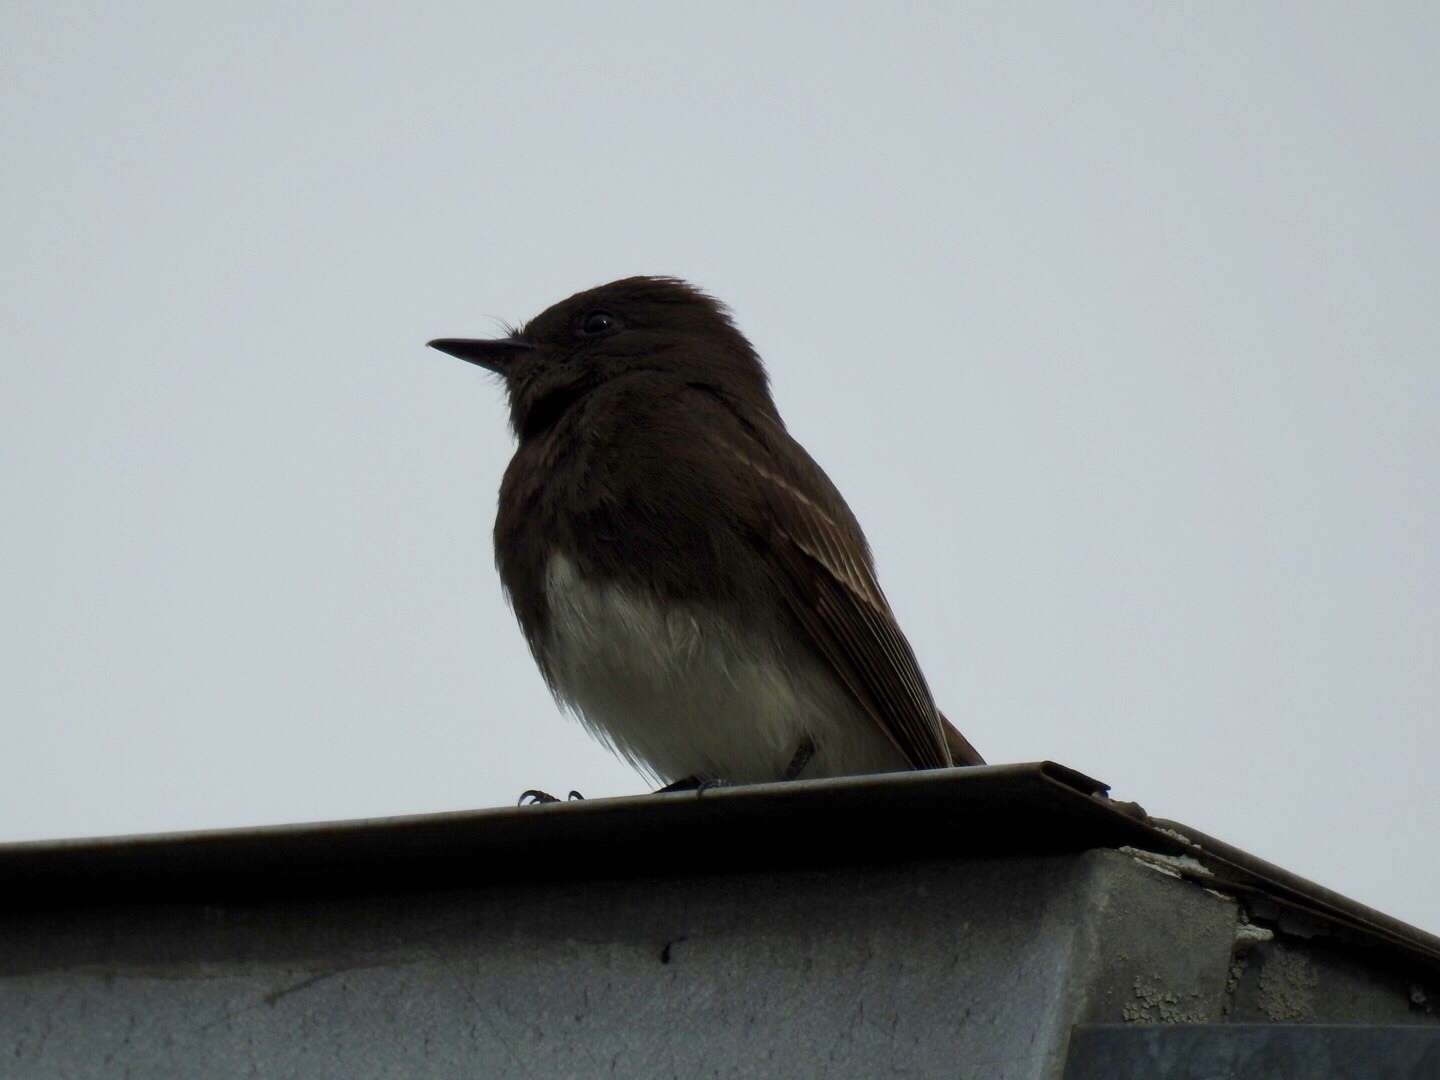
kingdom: Animalia
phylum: Chordata
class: Aves
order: Passeriformes
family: Tyrannidae
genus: Sayornis
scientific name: Sayornis nigricans
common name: Black phoebe
